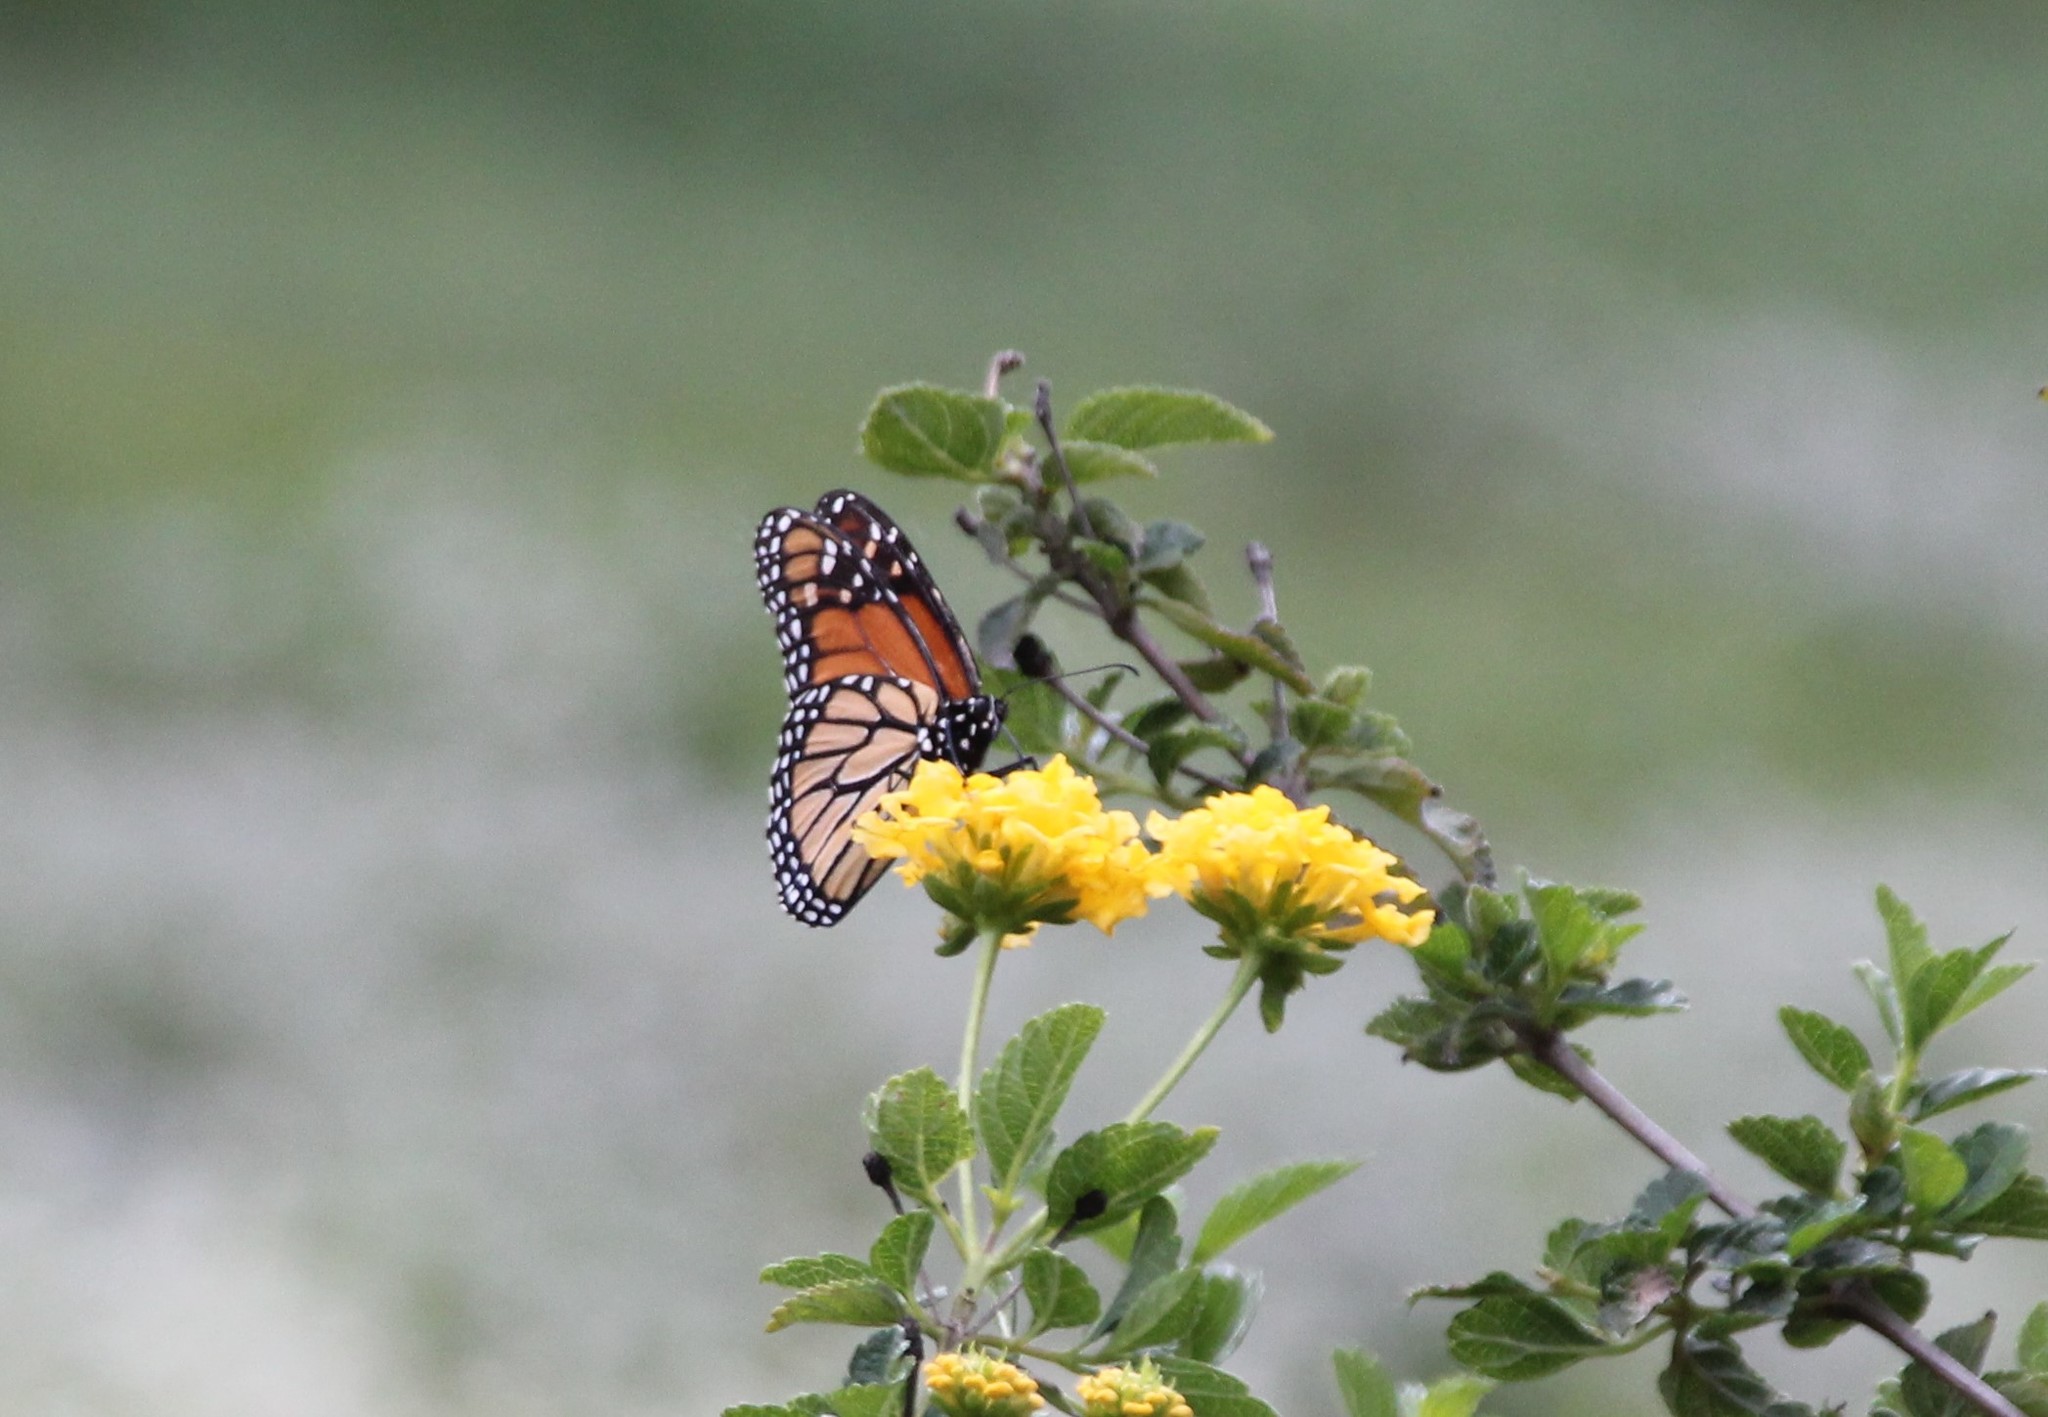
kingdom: Animalia
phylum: Arthropoda
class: Insecta
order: Lepidoptera
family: Nymphalidae
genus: Danaus
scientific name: Danaus plexippus
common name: Monarch
